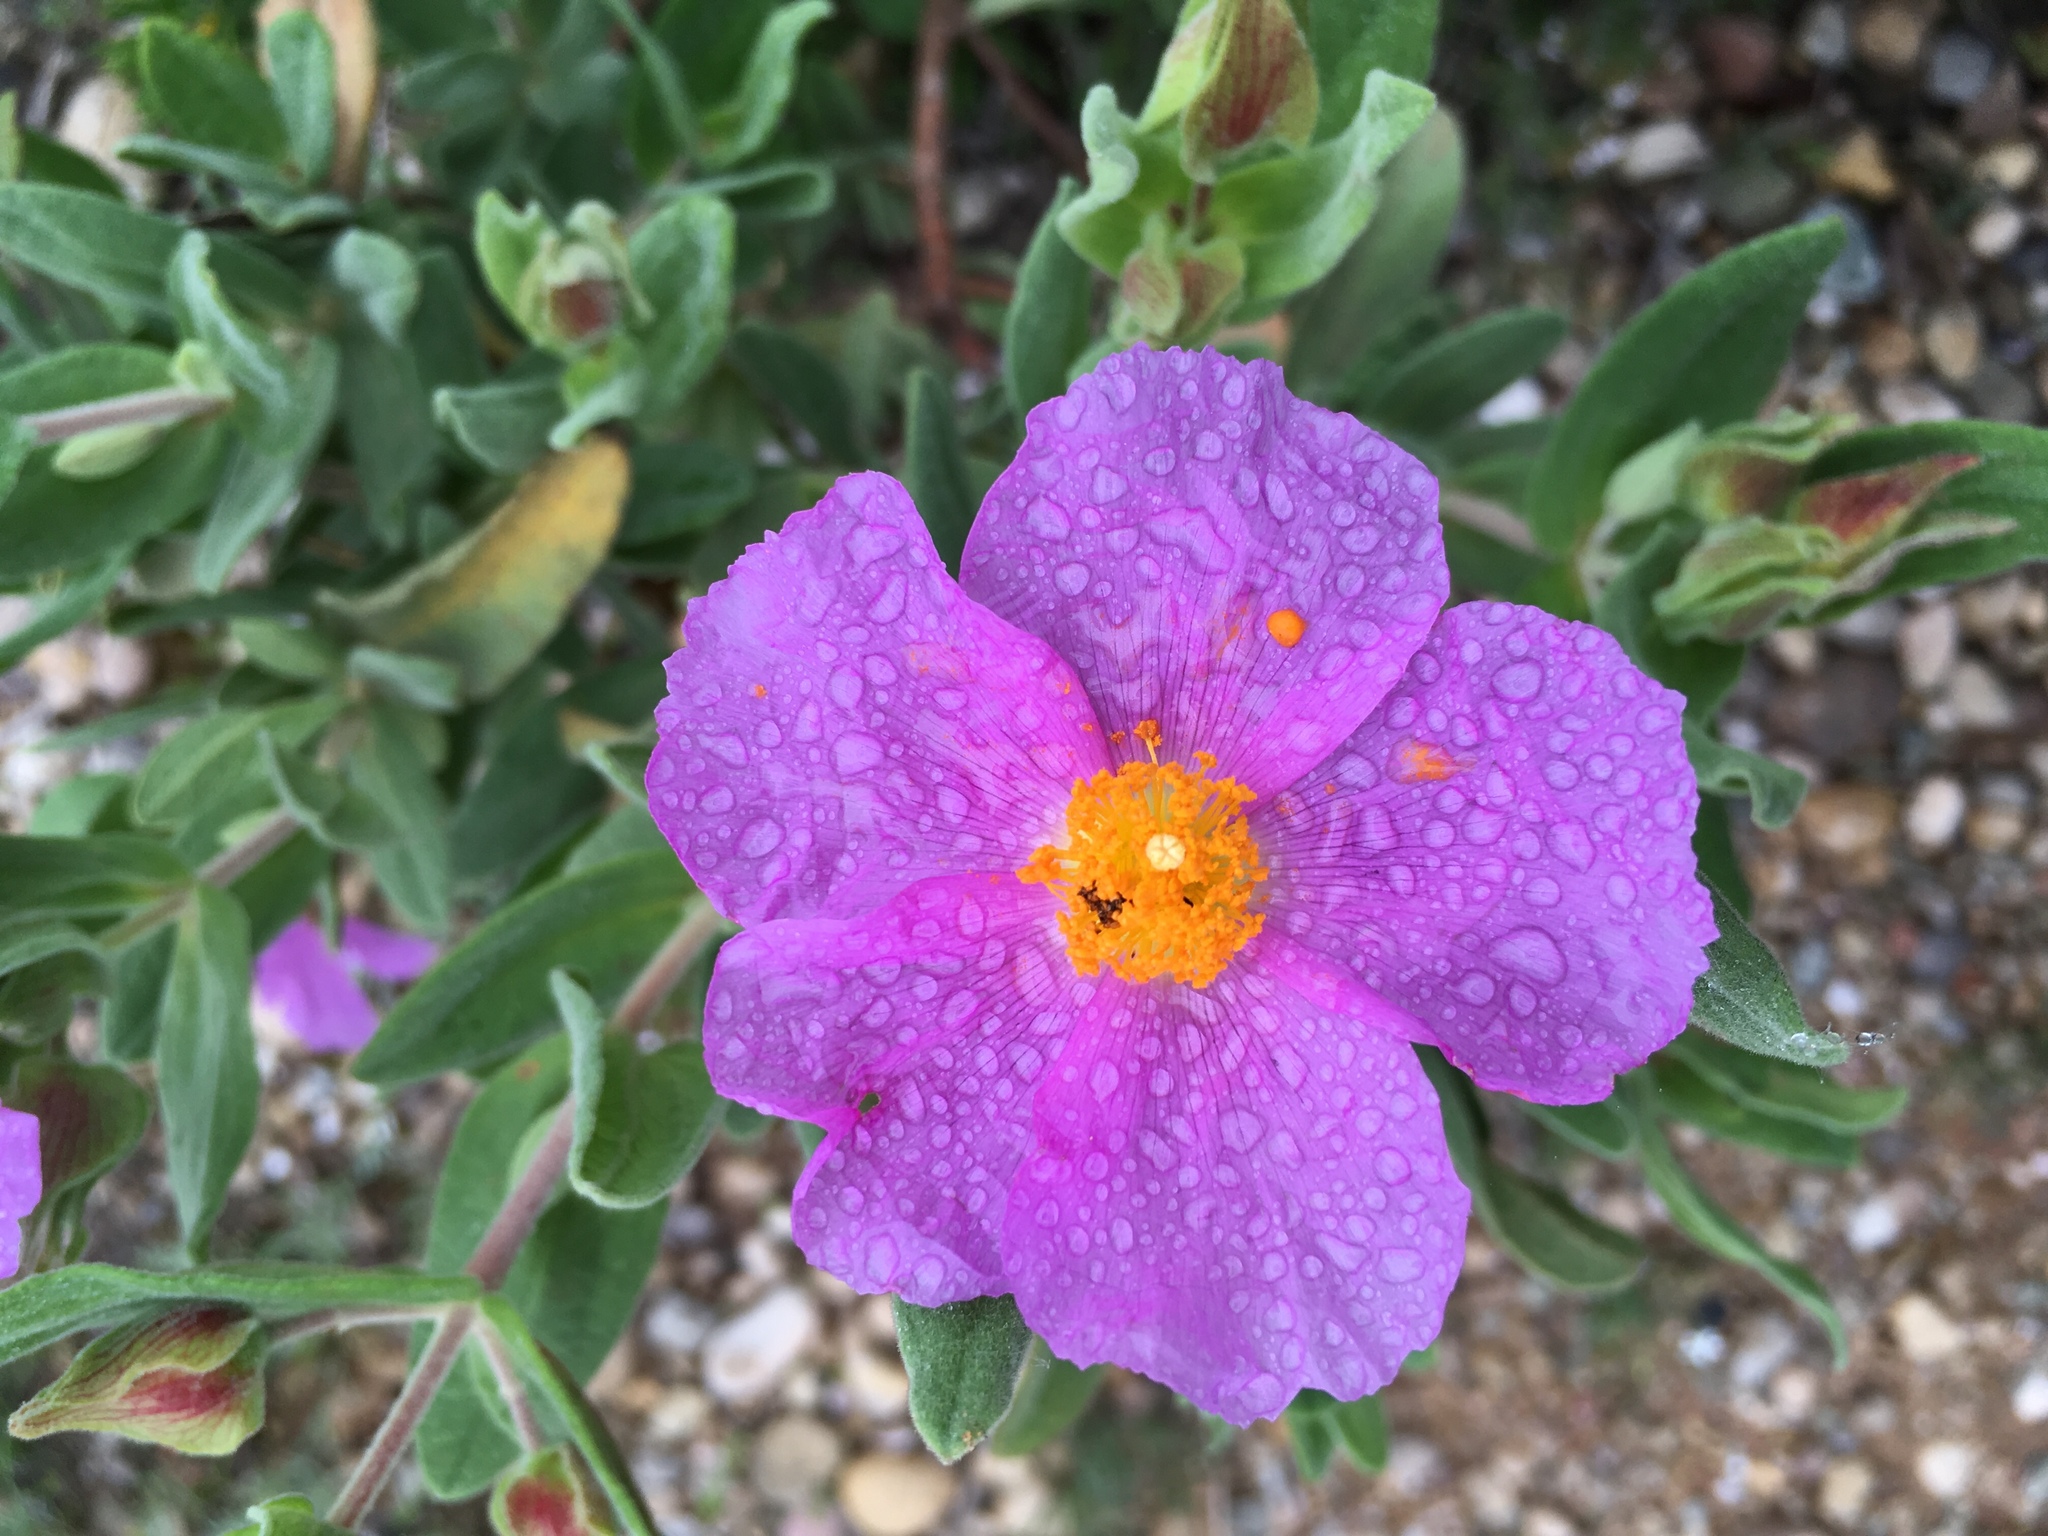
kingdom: Plantae
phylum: Tracheophyta
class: Magnoliopsida
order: Malvales
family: Cistaceae
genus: Cistus
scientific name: Cistus albidus
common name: White-leaf rock-rose
